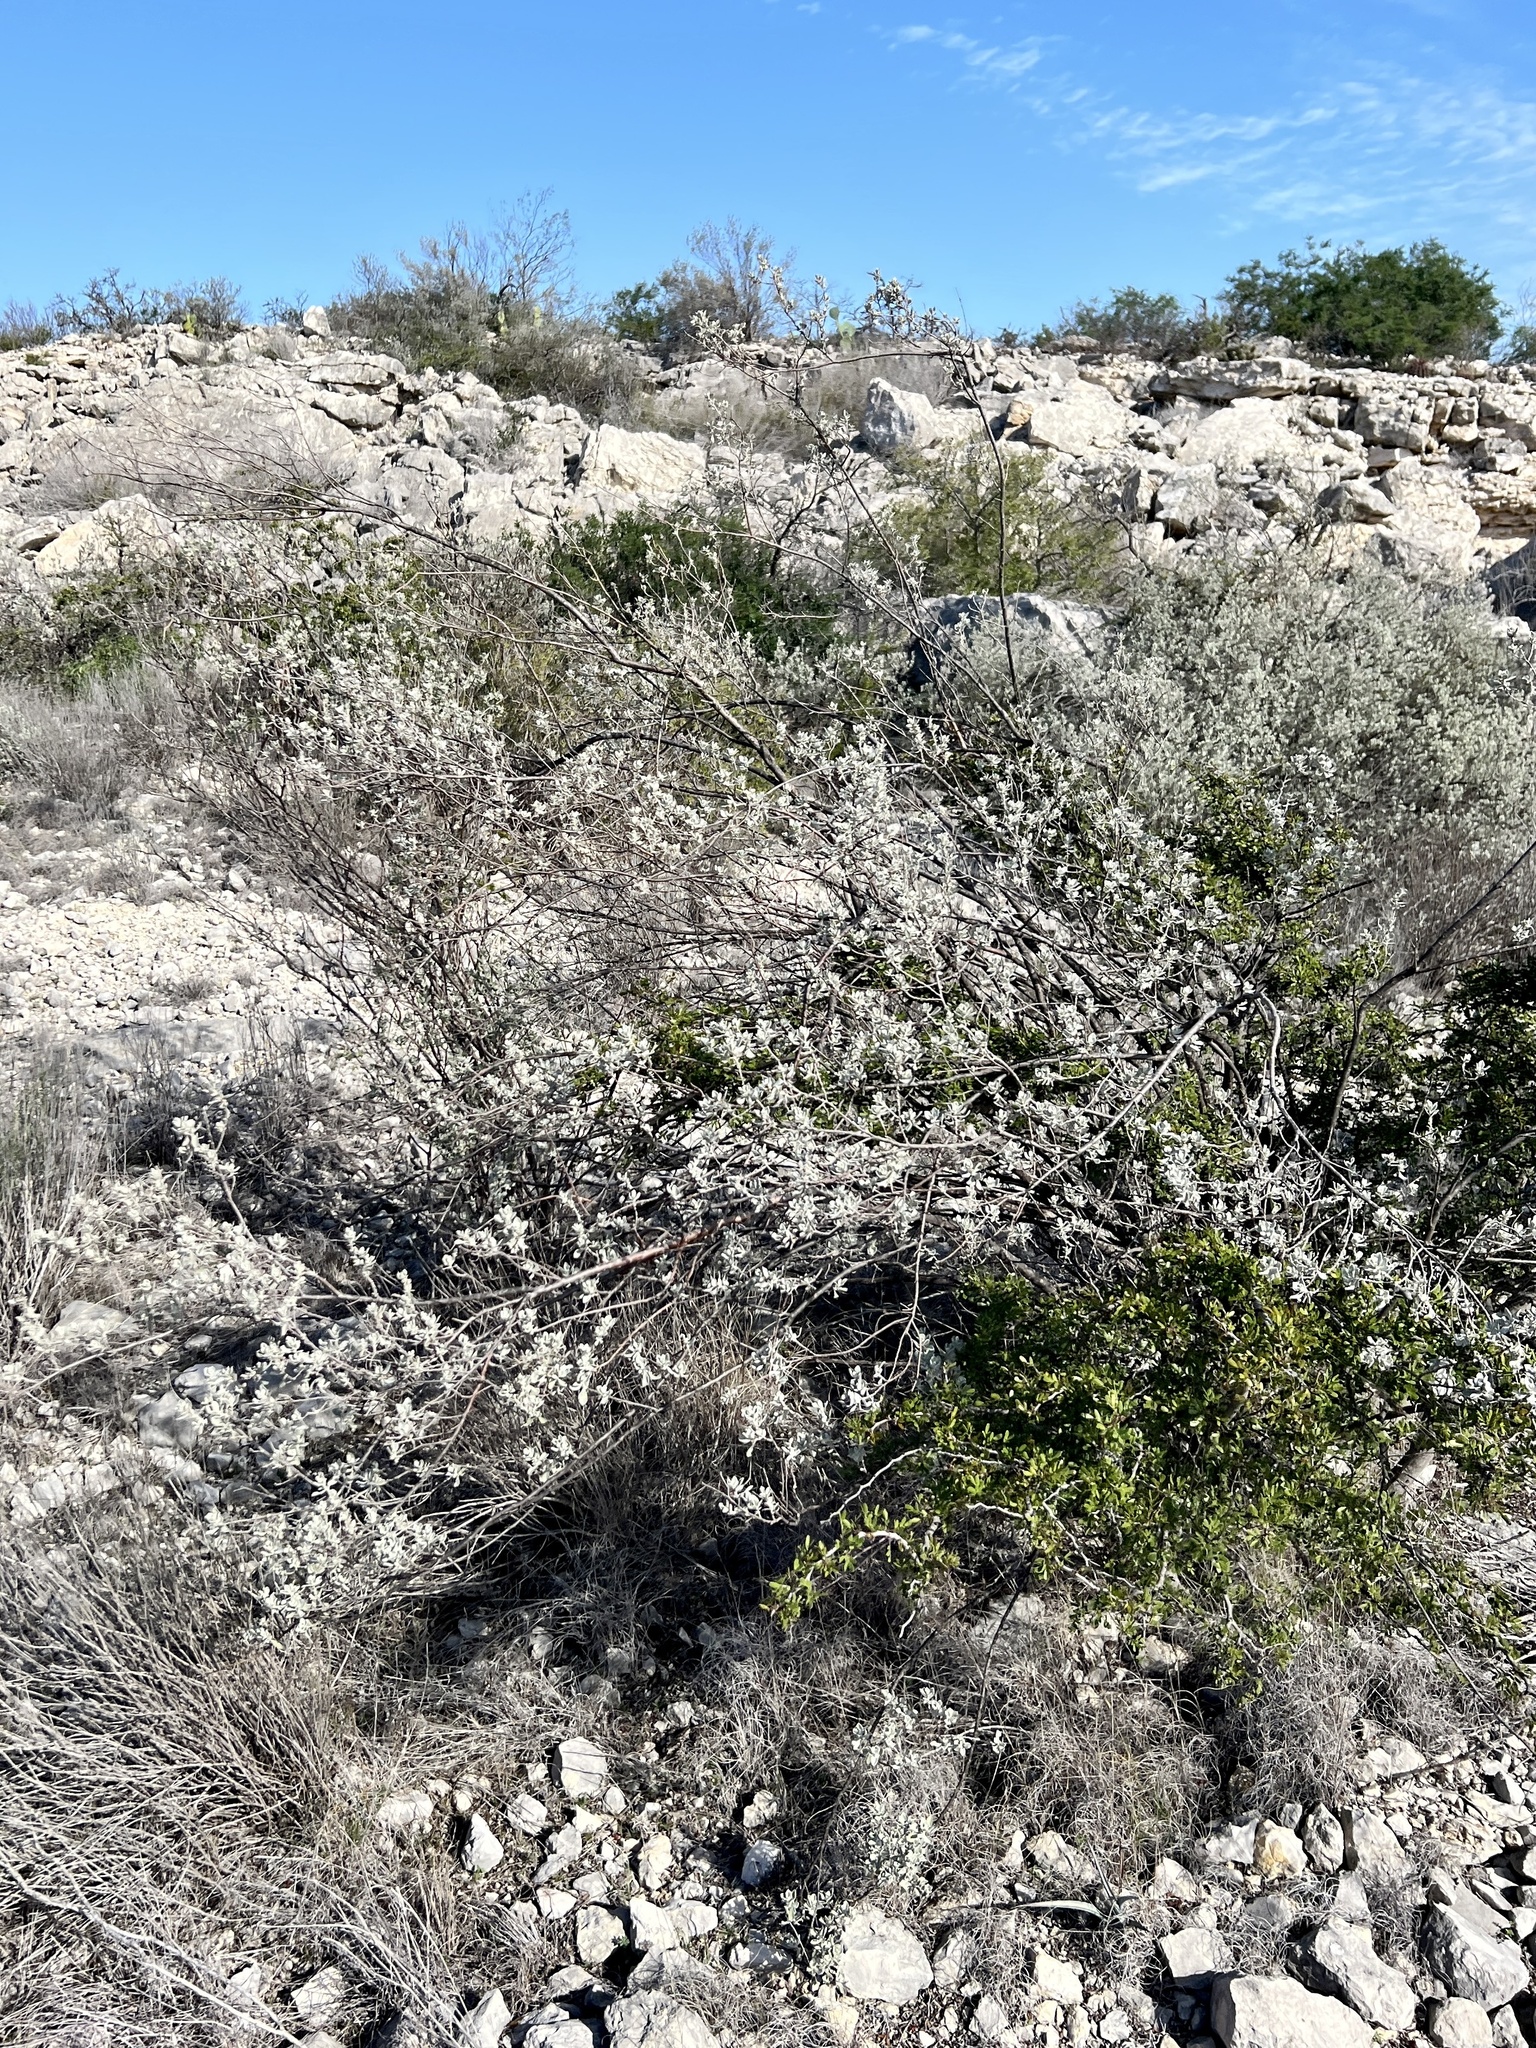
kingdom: Plantae
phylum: Tracheophyta
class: Magnoliopsida
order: Lamiales
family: Scrophulariaceae
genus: Leucophyllum
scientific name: Leucophyllum frutescens
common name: Texas silverleaf
